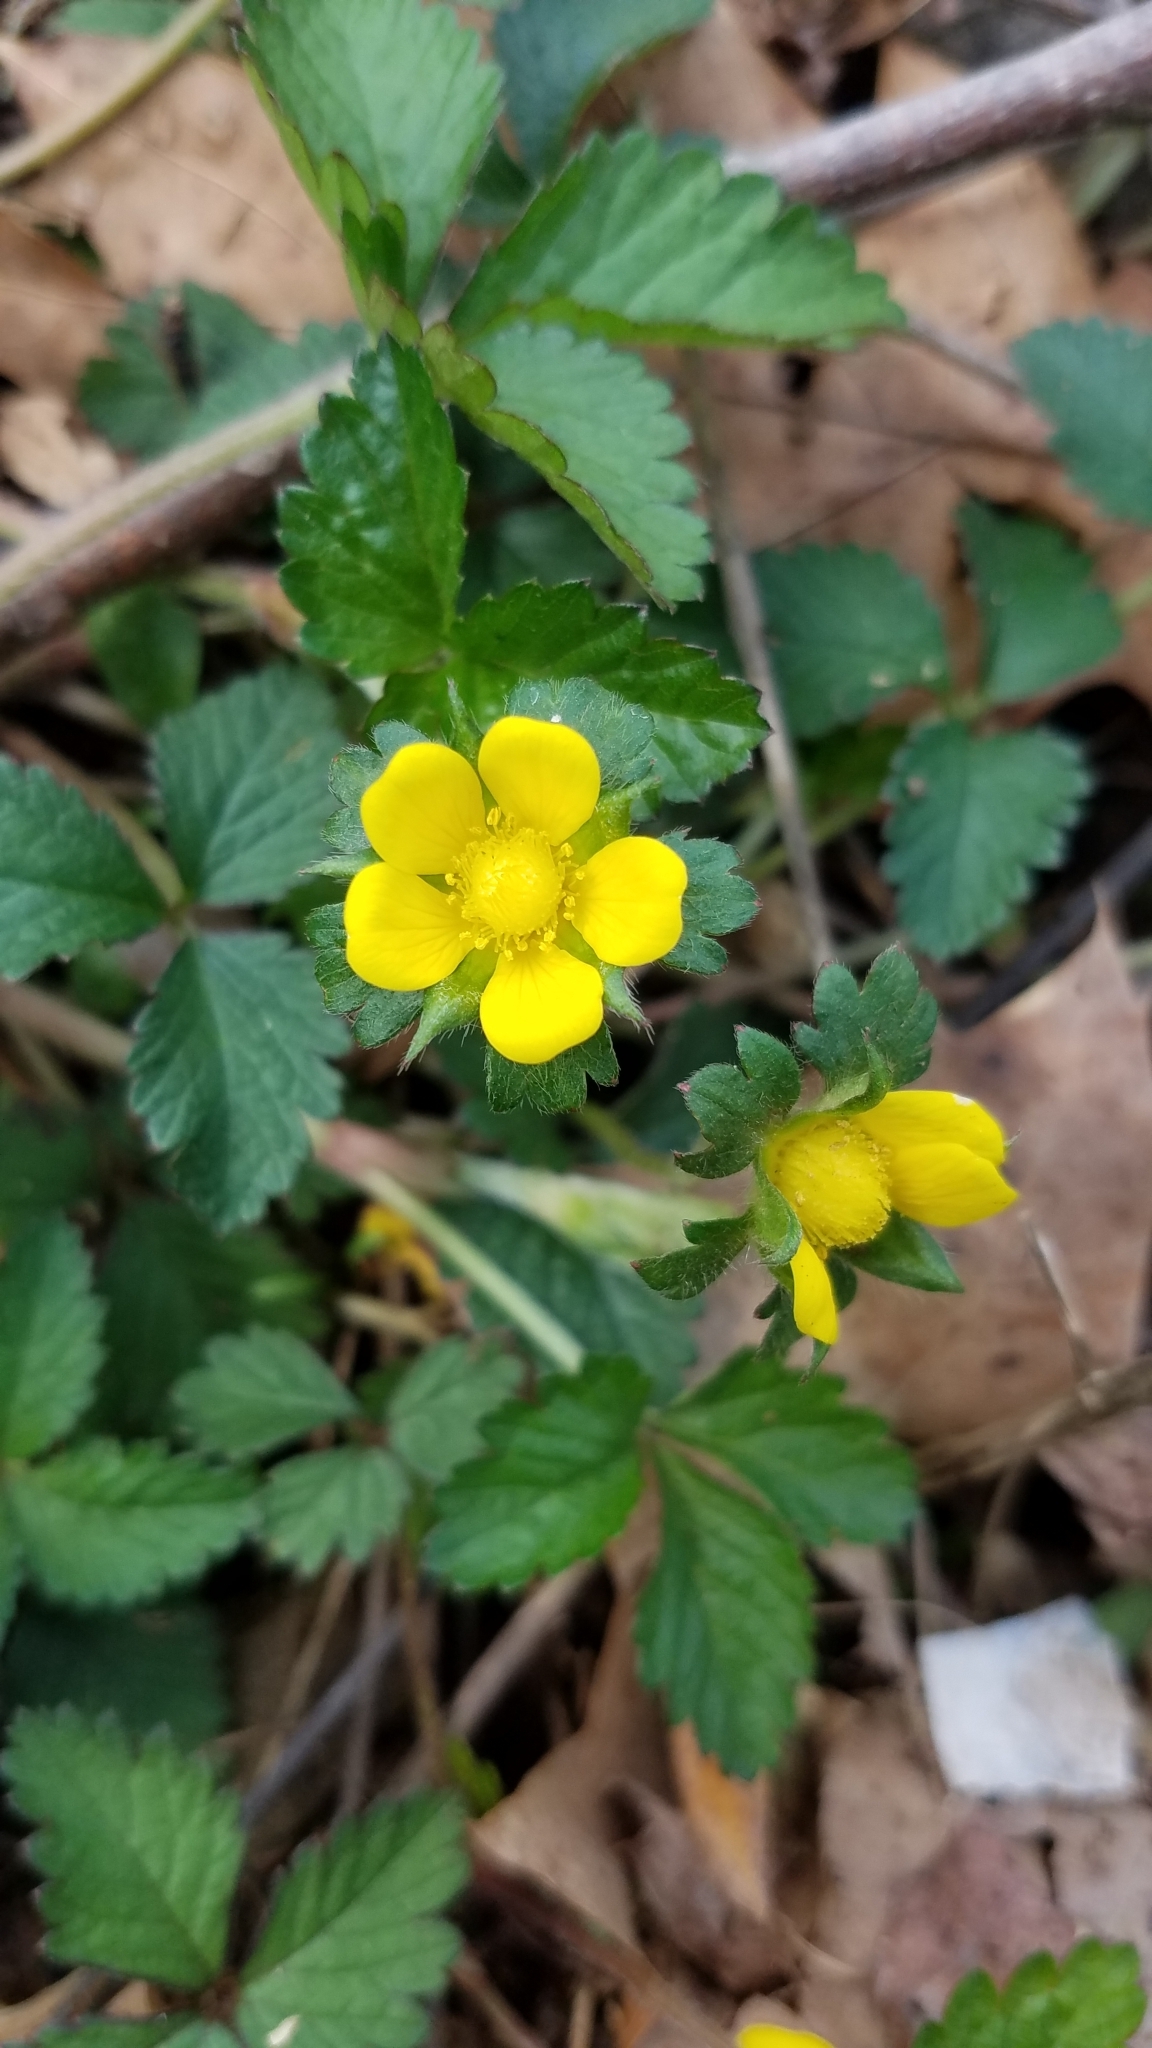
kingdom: Plantae
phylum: Tracheophyta
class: Magnoliopsida
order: Rosales
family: Rosaceae
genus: Potentilla
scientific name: Potentilla indica
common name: Yellow-flowered strawberry
